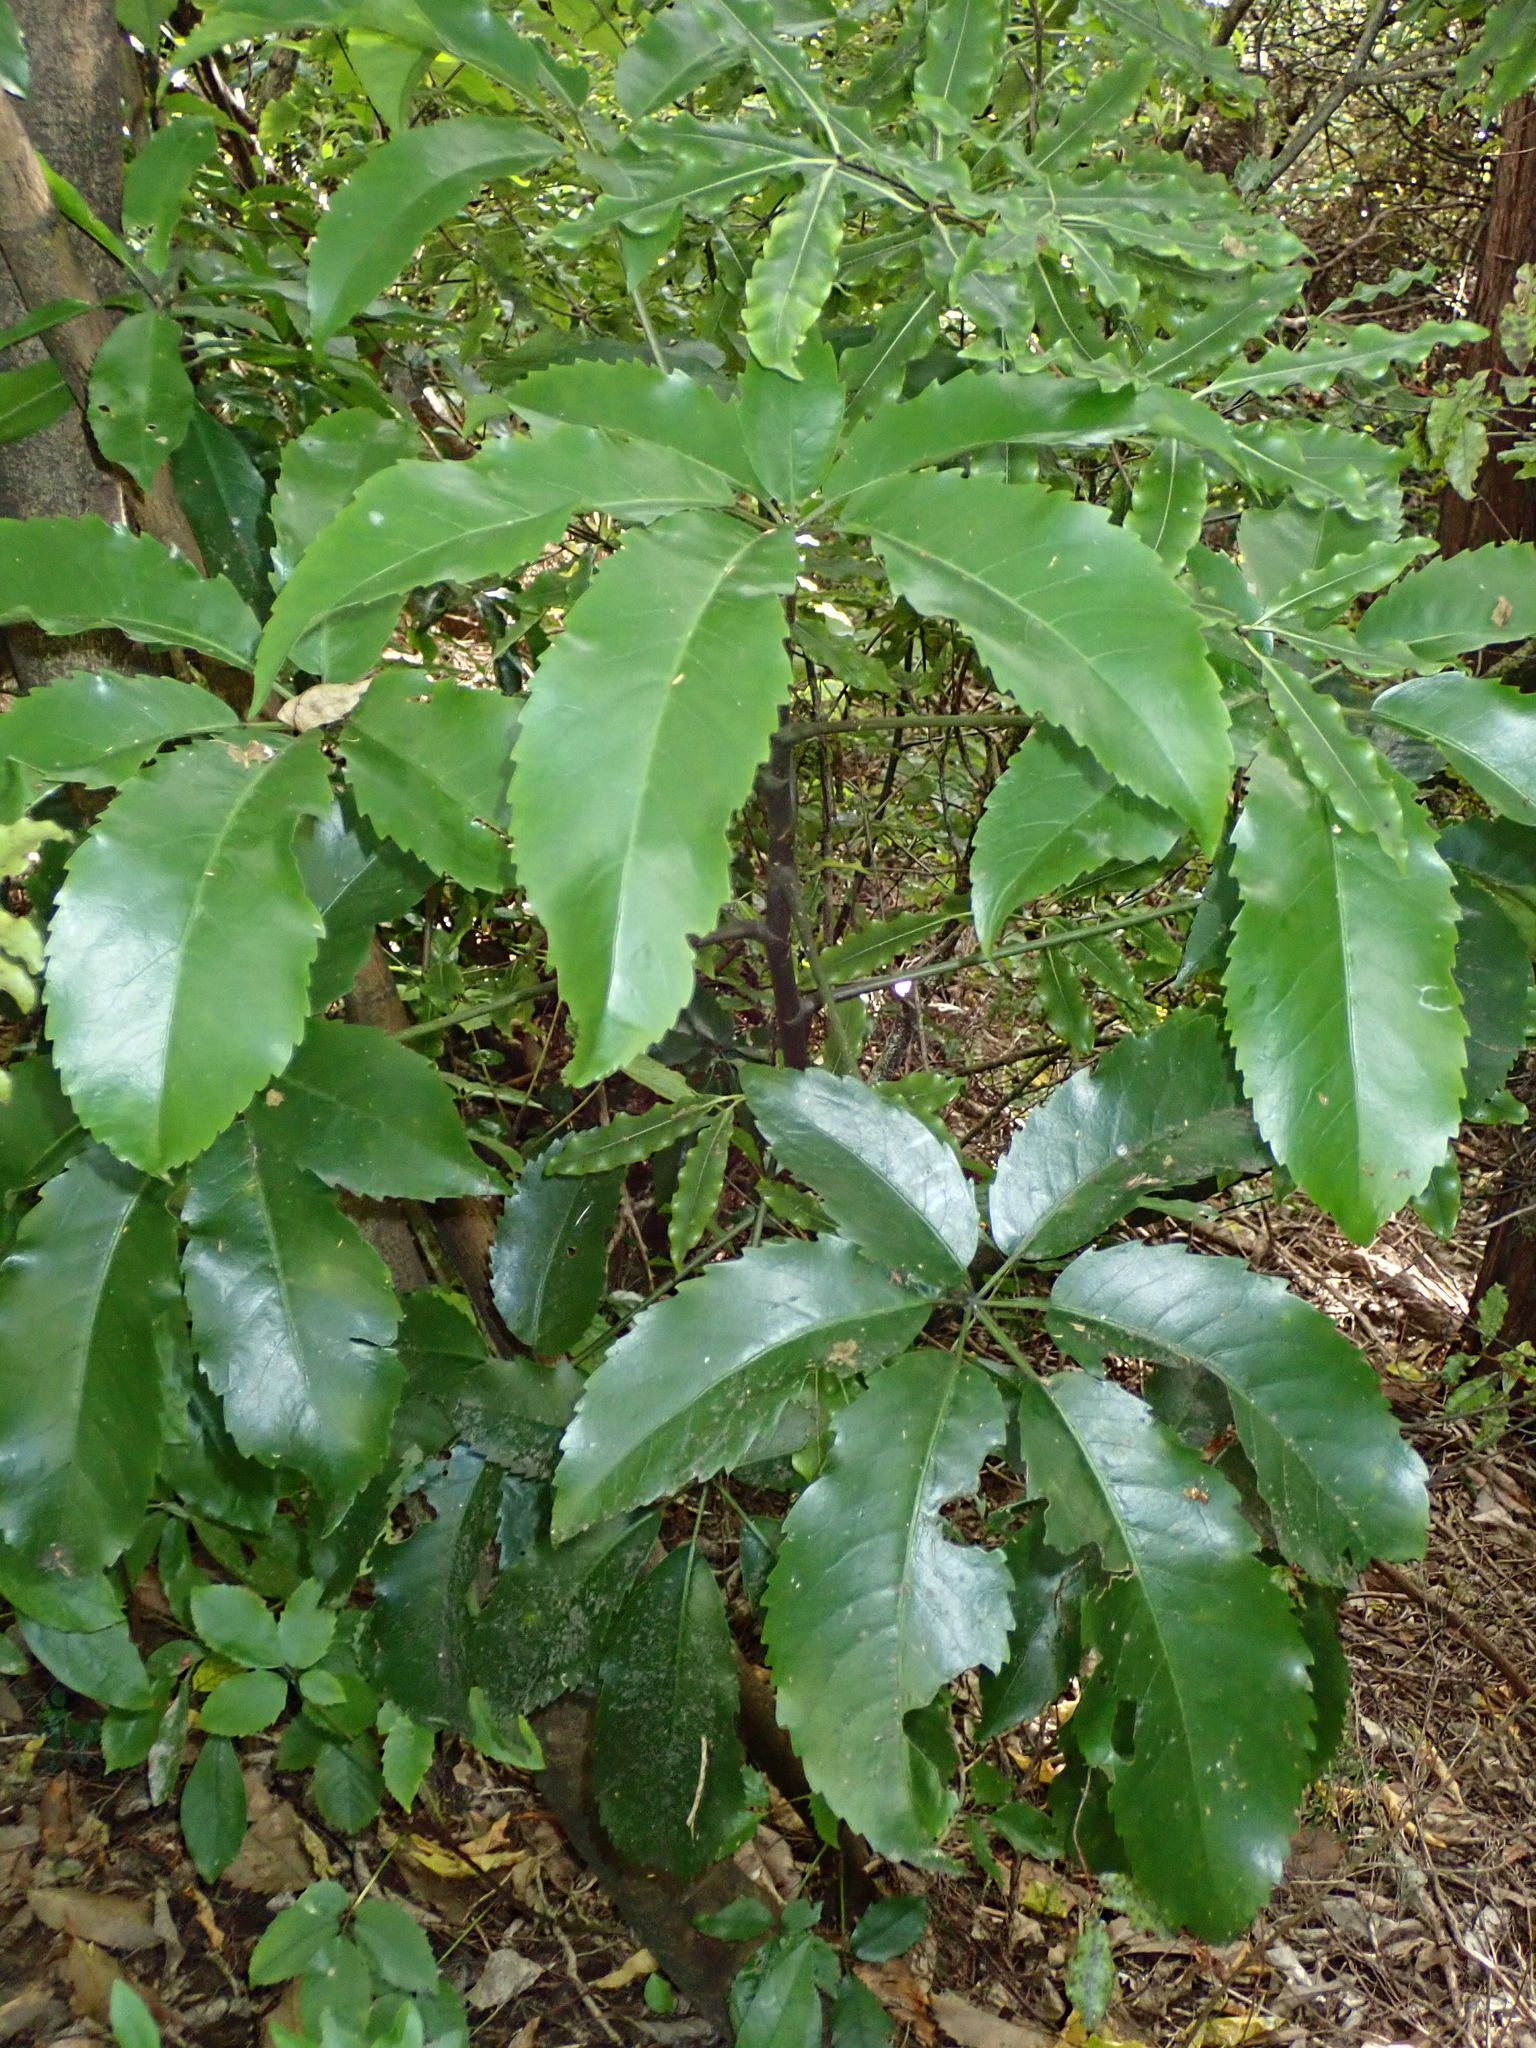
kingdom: Plantae
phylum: Tracheophyta
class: Magnoliopsida
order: Apiales
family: Araliaceae
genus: Neopanax
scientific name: Neopanax arboreus
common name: Five-fingers
